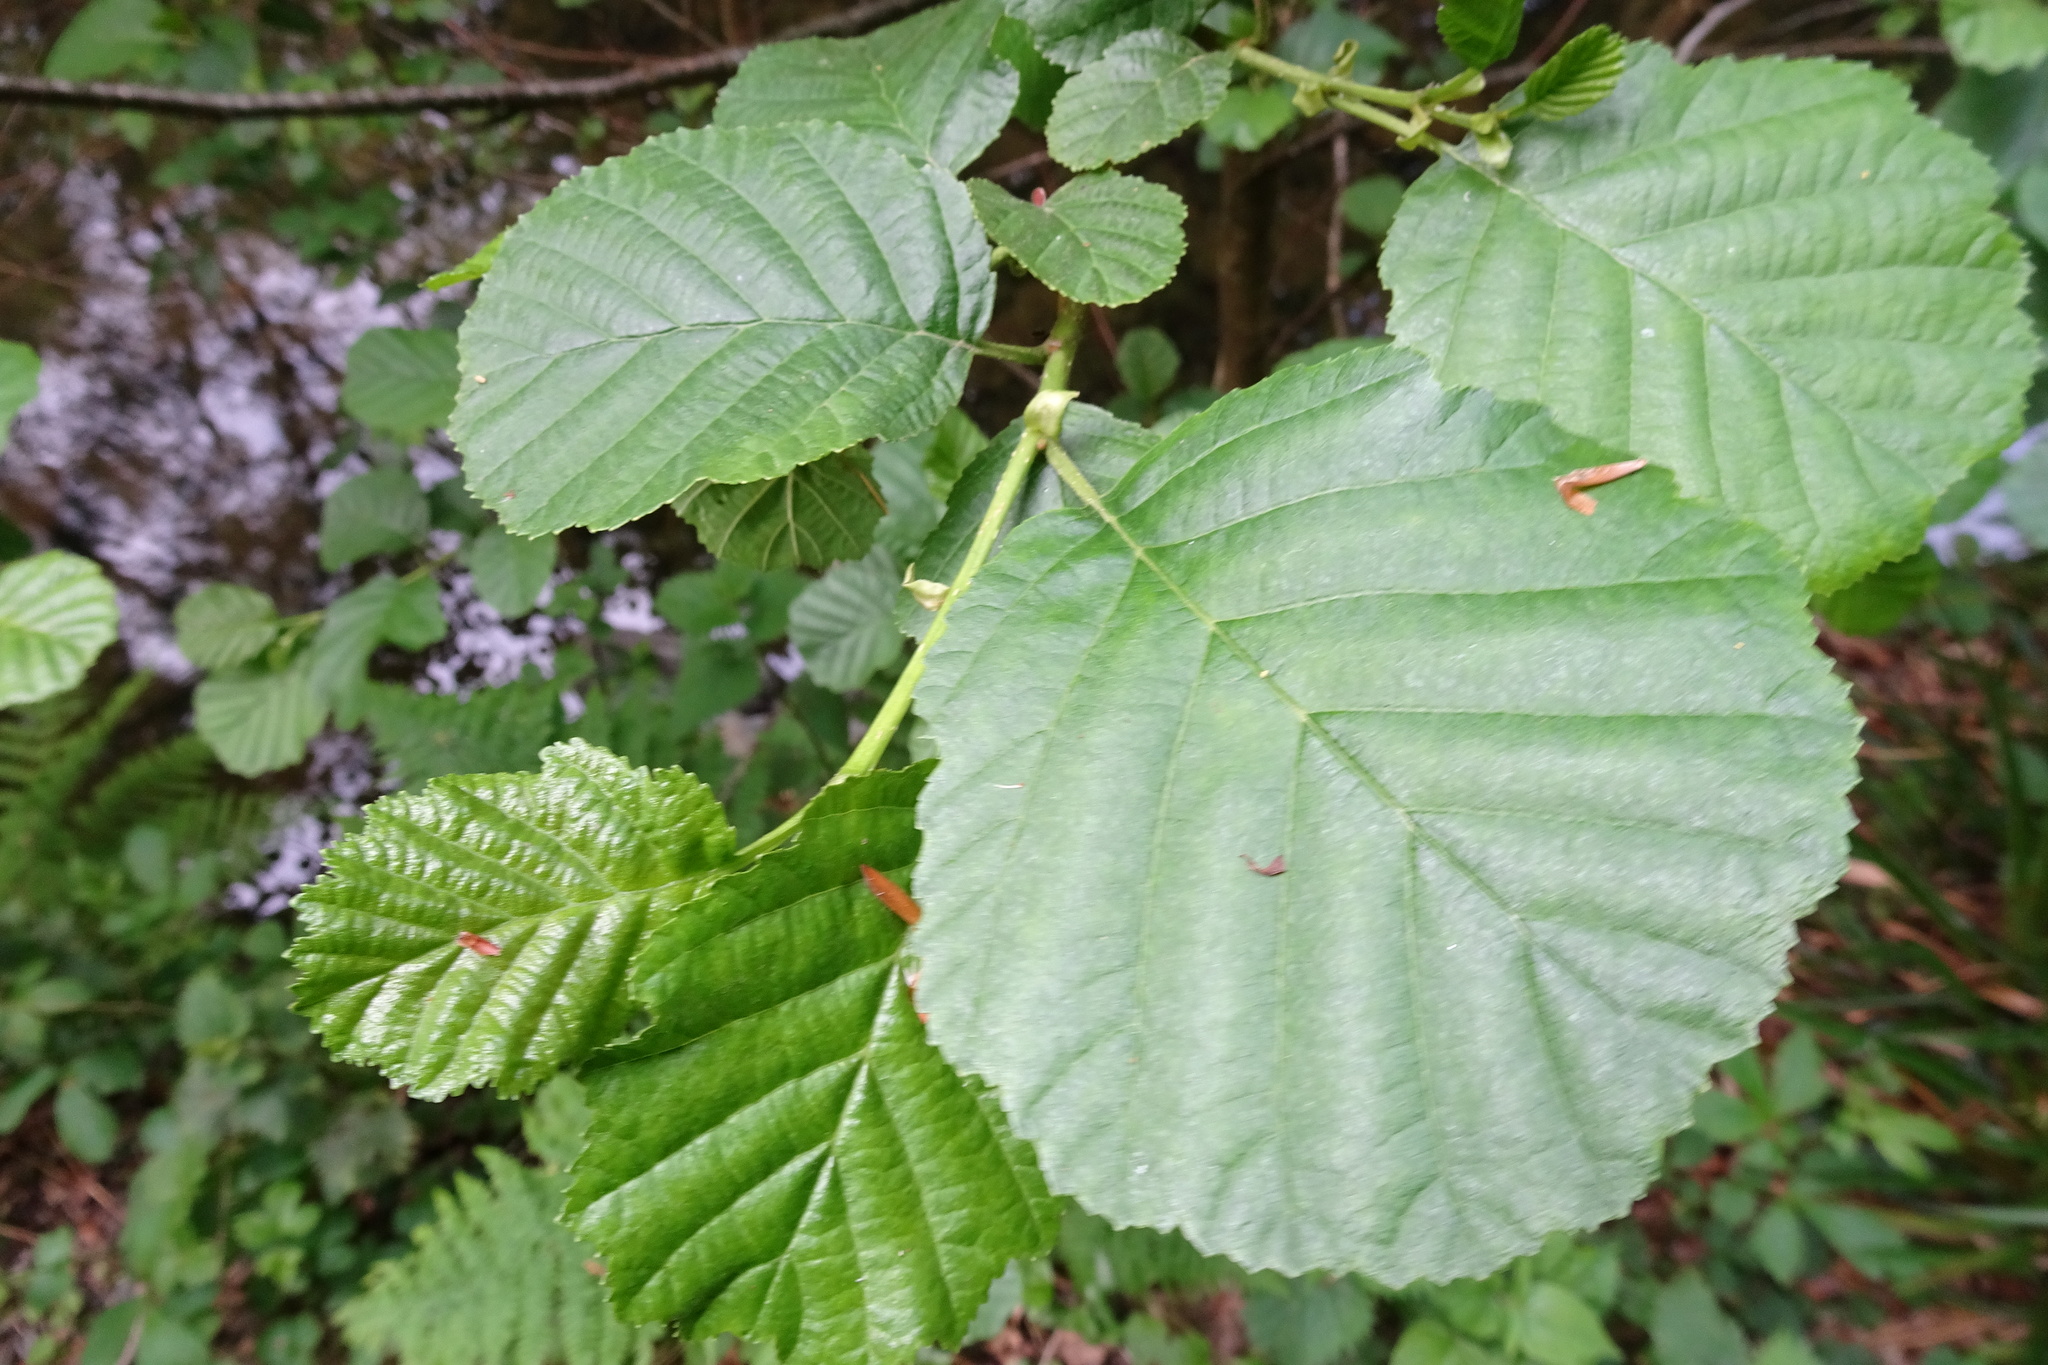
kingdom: Plantae
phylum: Tracheophyta
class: Magnoliopsida
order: Fagales
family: Betulaceae
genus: Alnus
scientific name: Alnus glutinosa
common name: Black alder
